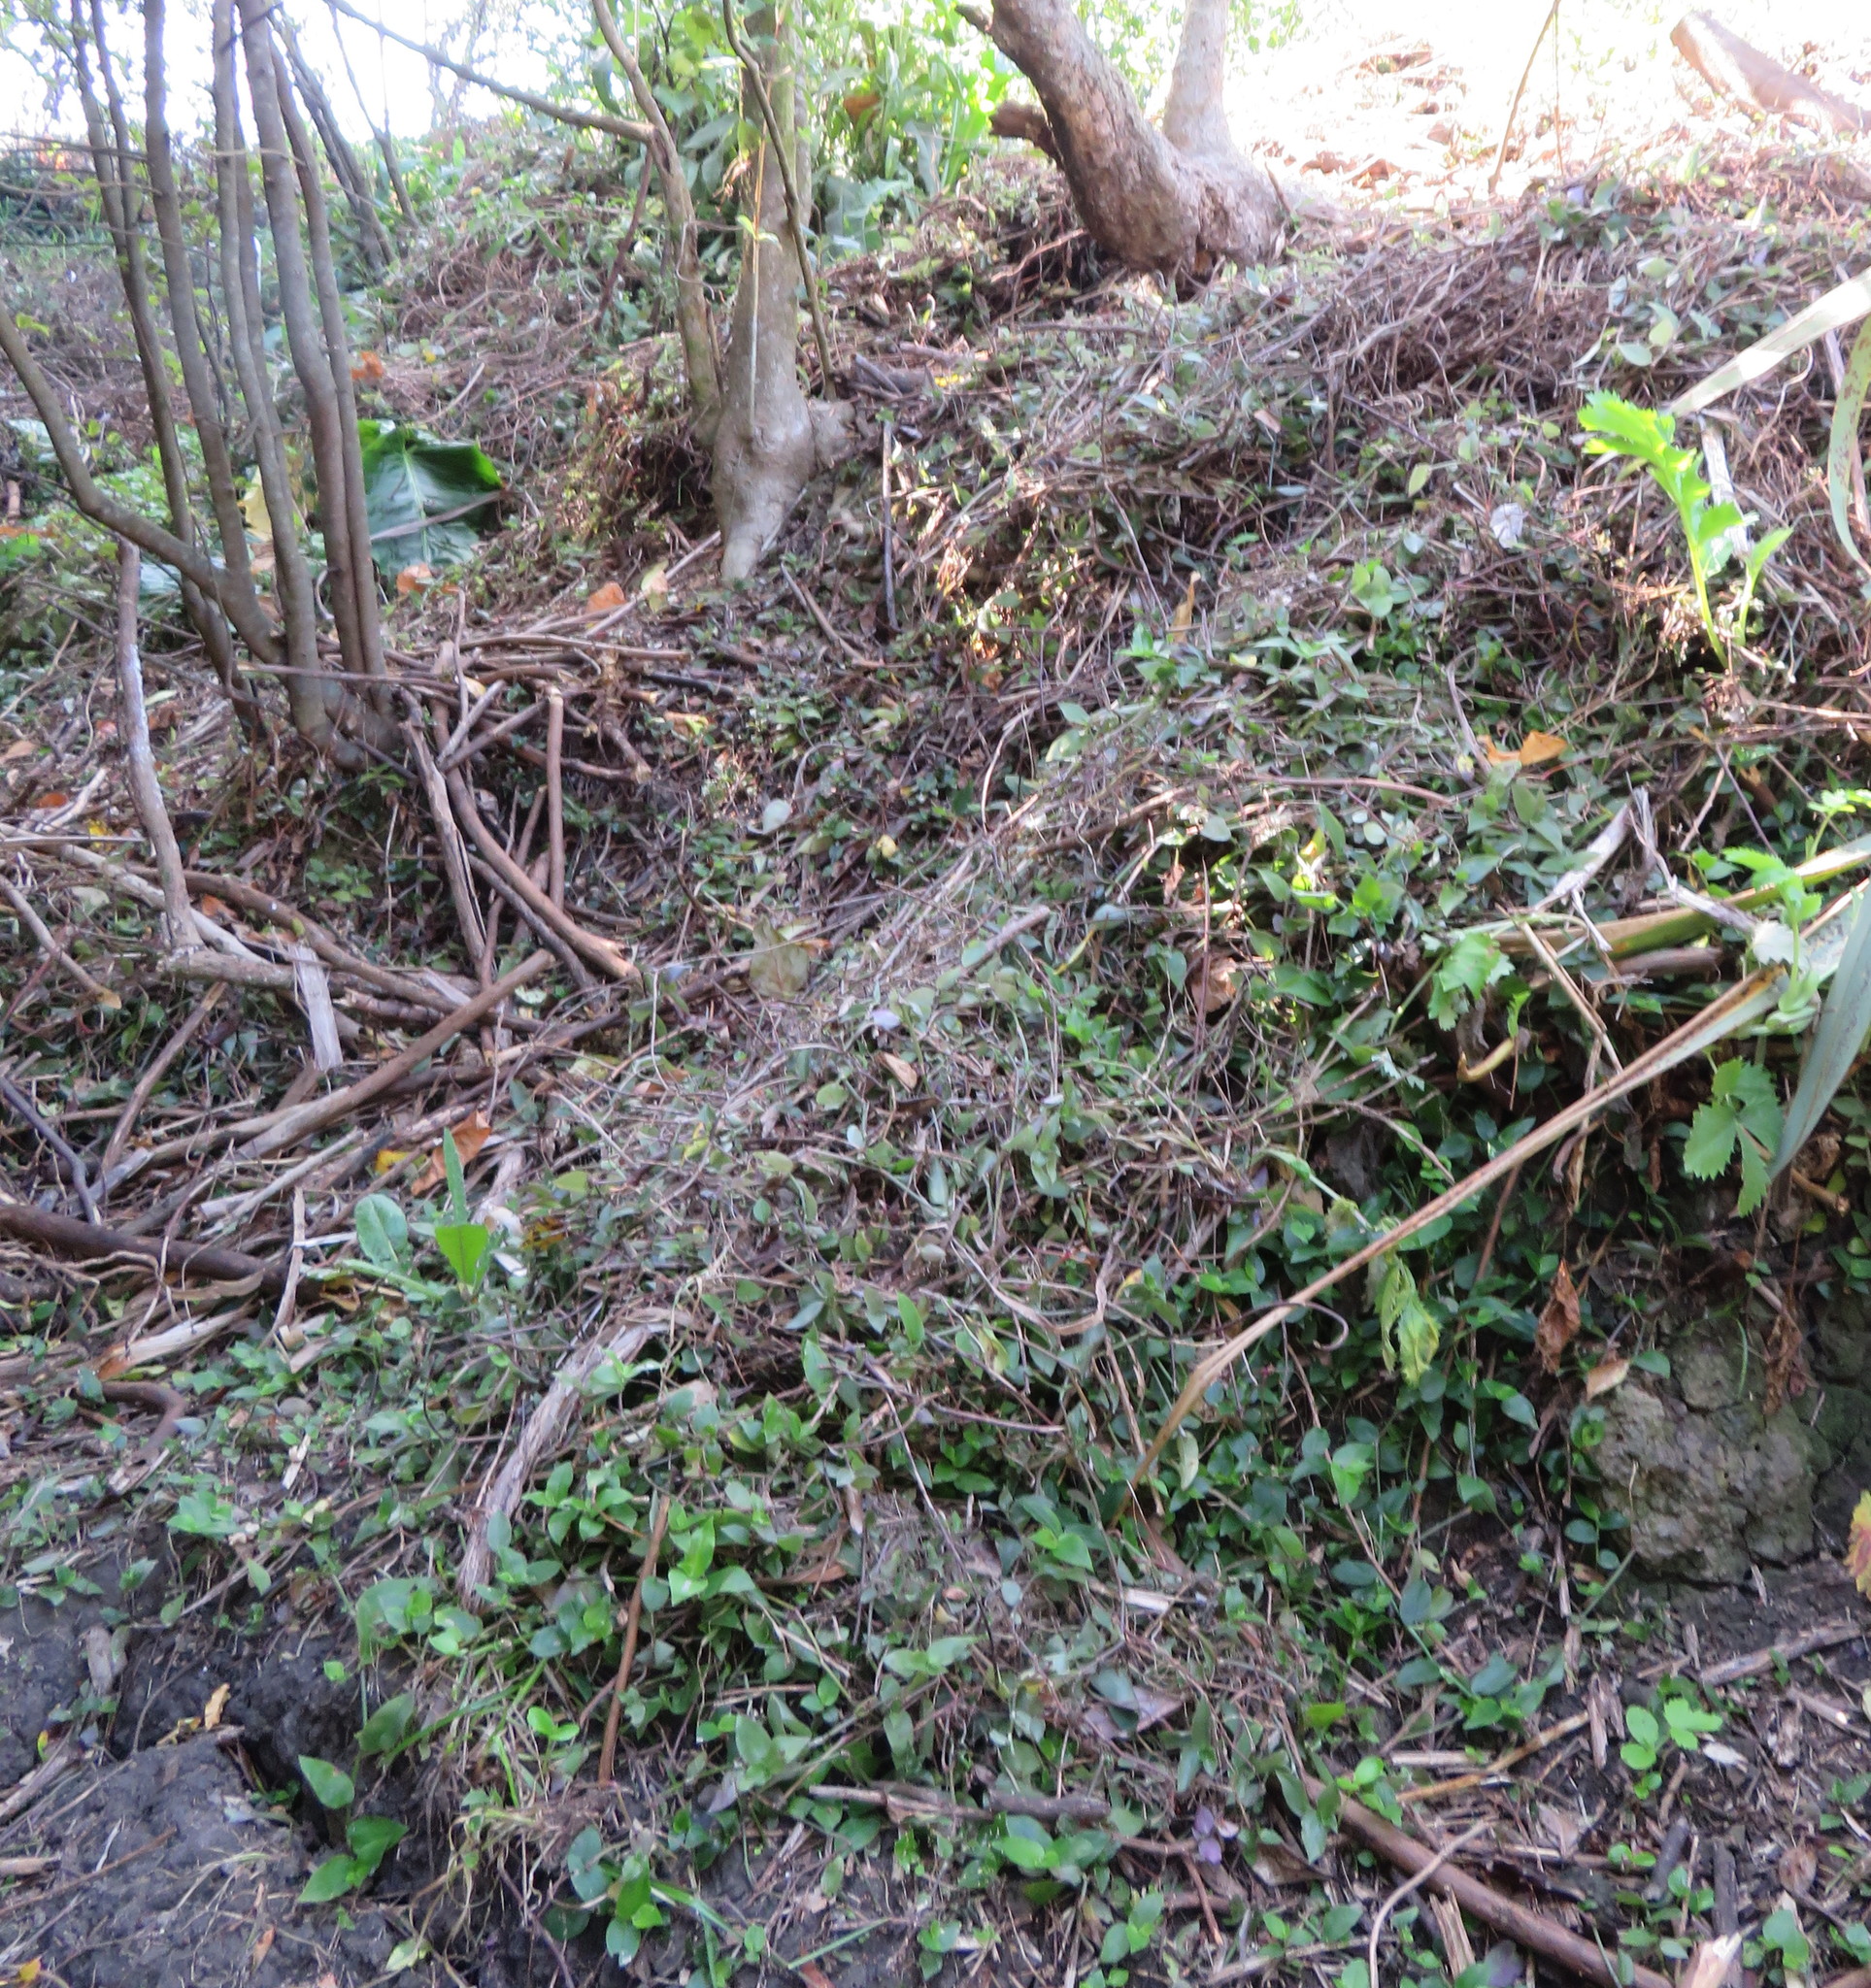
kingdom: Plantae
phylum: Tracheophyta
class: Liliopsida
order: Commelinales
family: Commelinaceae
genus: Tradescantia
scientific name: Tradescantia fluminensis
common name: Wandering-jew
